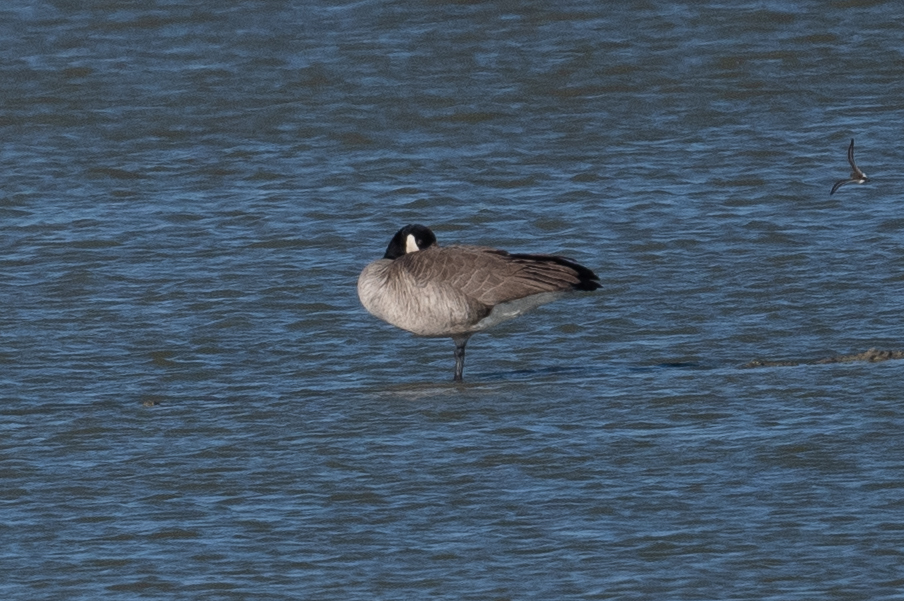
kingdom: Animalia
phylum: Chordata
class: Aves
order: Anseriformes
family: Anatidae
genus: Branta
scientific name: Branta canadensis
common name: Canada goose
